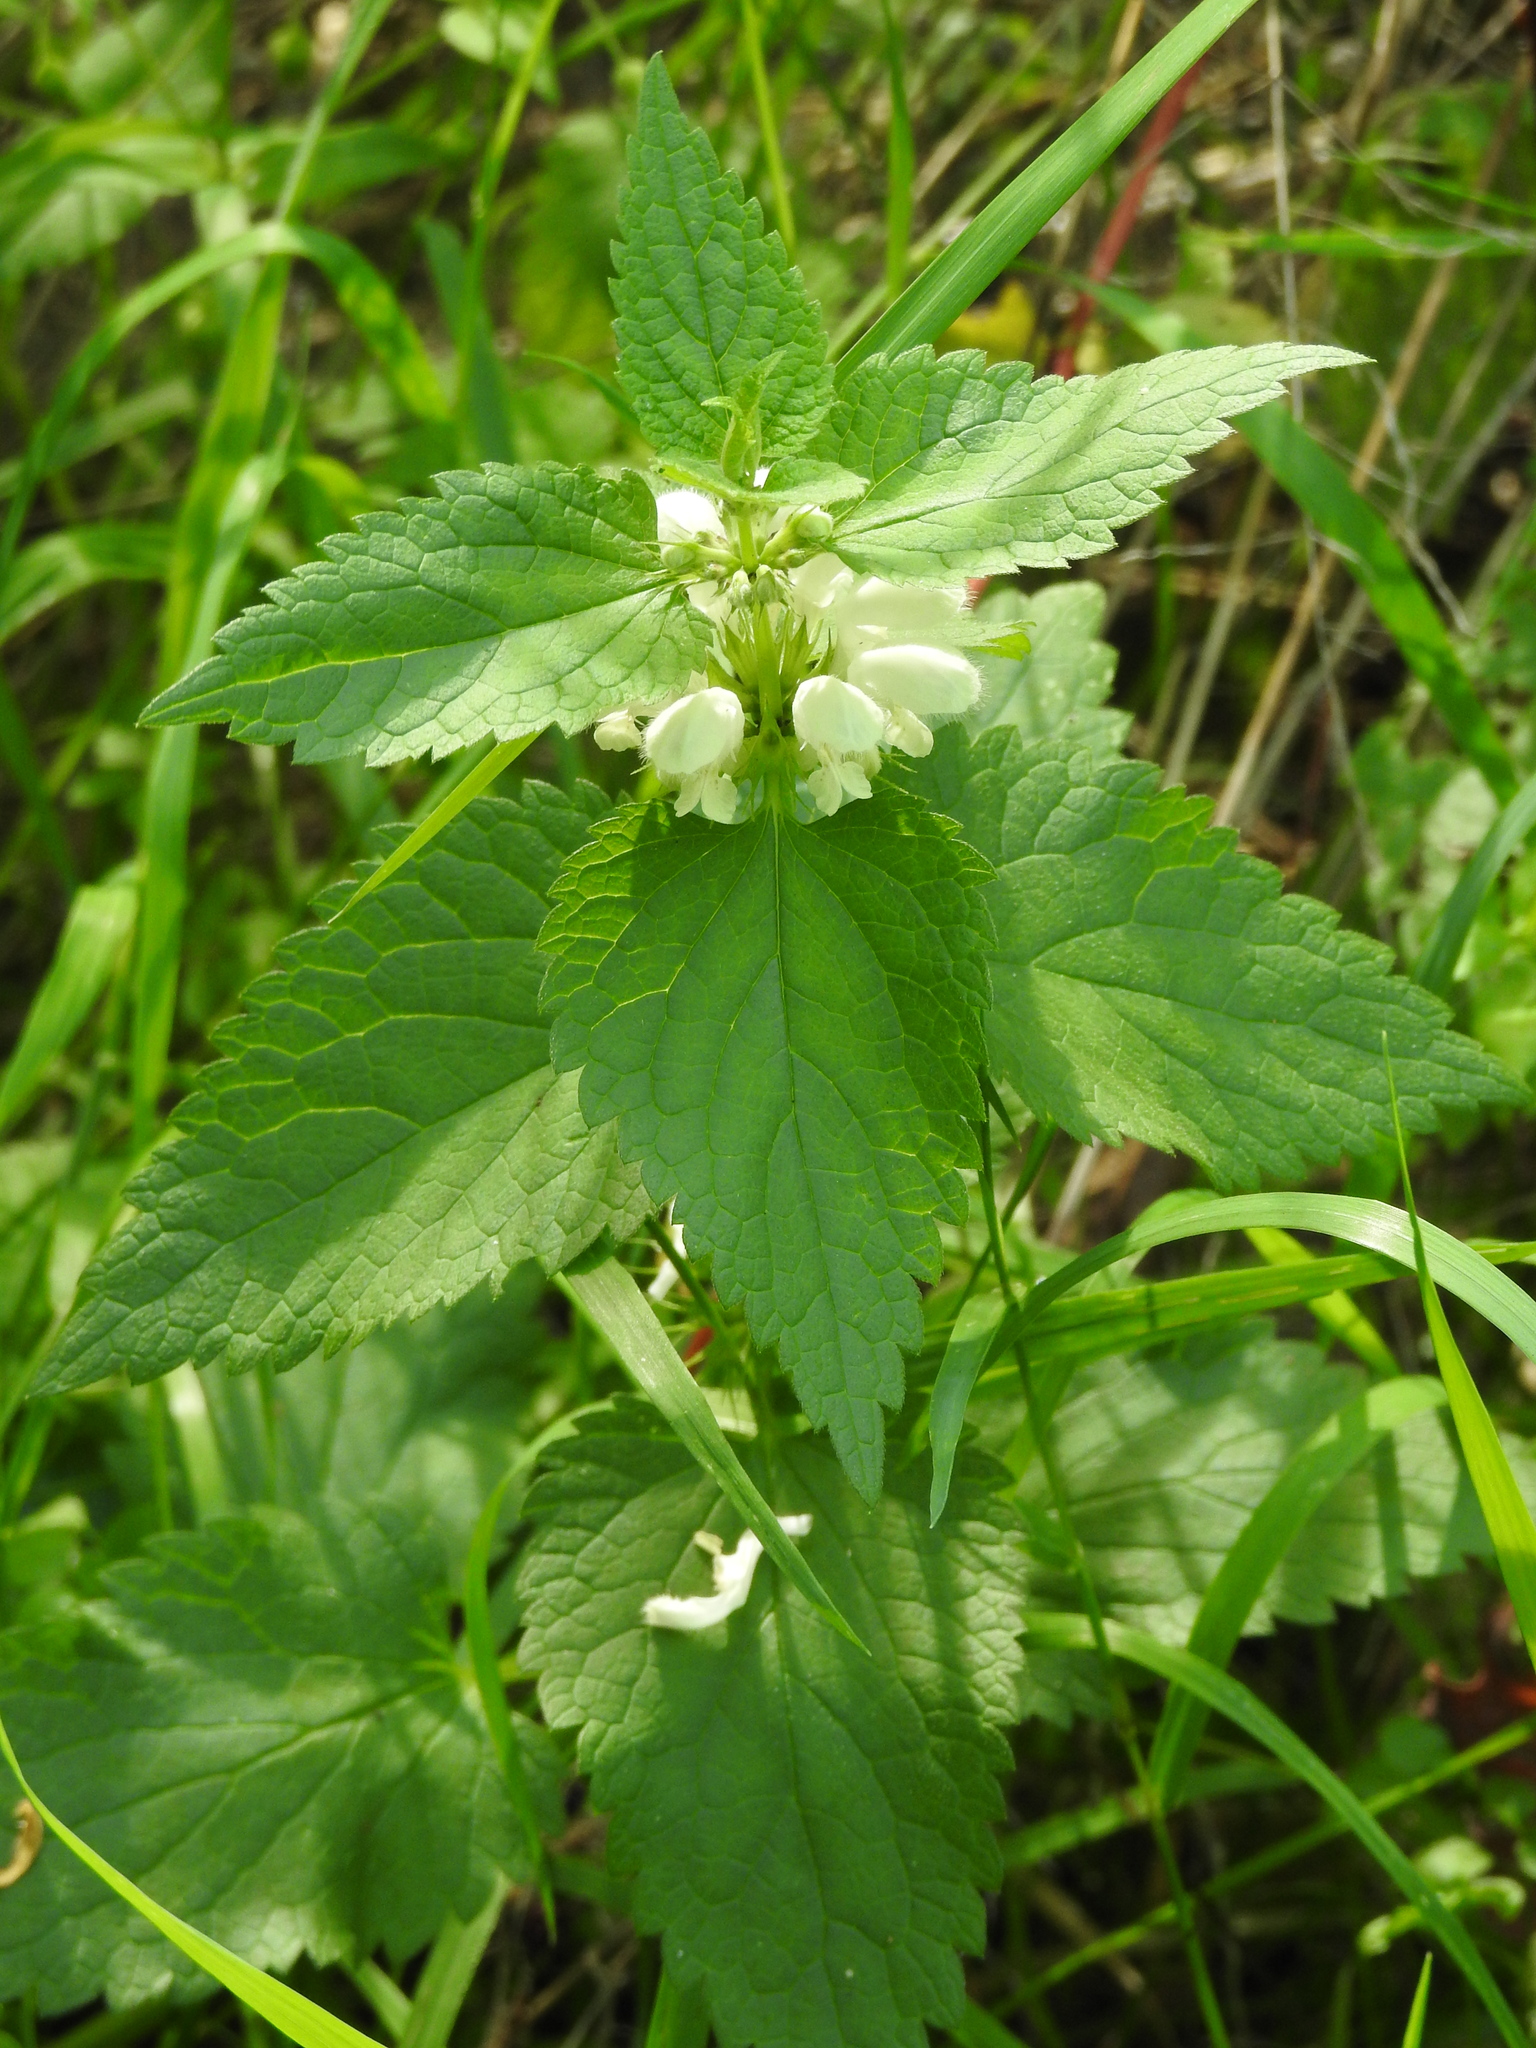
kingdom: Plantae
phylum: Tracheophyta
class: Magnoliopsida
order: Lamiales
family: Lamiaceae
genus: Lamium
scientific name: Lamium album
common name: White dead-nettle
